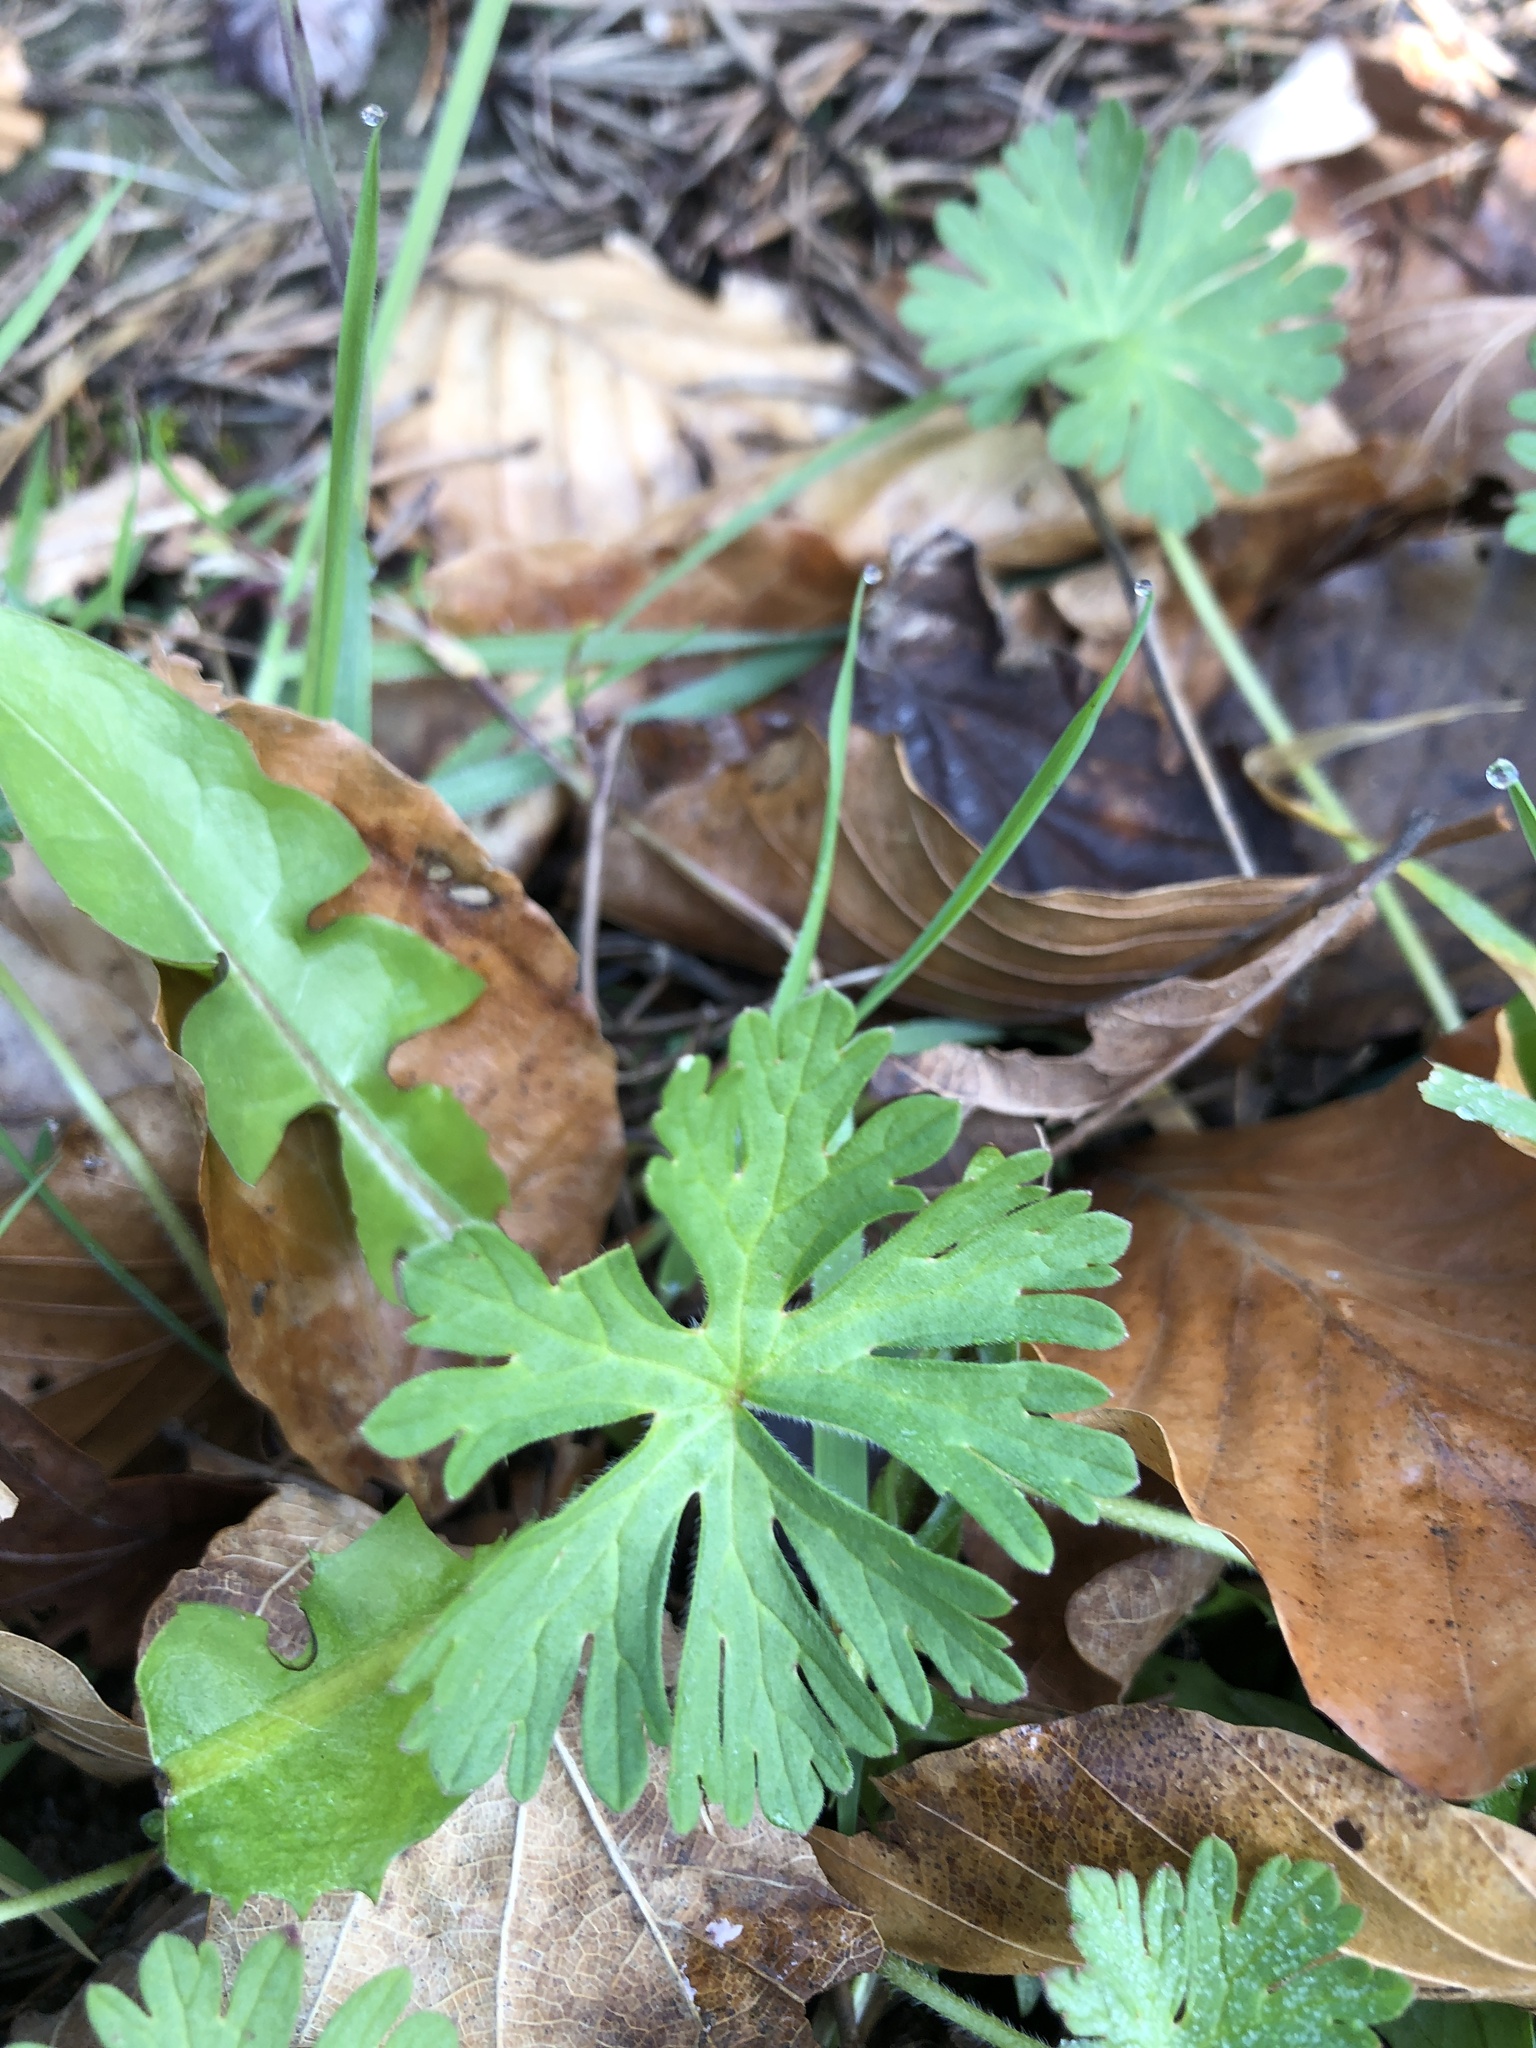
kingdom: Plantae
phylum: Tracheophyta
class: Magnoliopsida
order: Geraniales
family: Geraniaceae
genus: Geranium
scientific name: Geranium dissectum
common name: Cut-leaved crane's-bill
